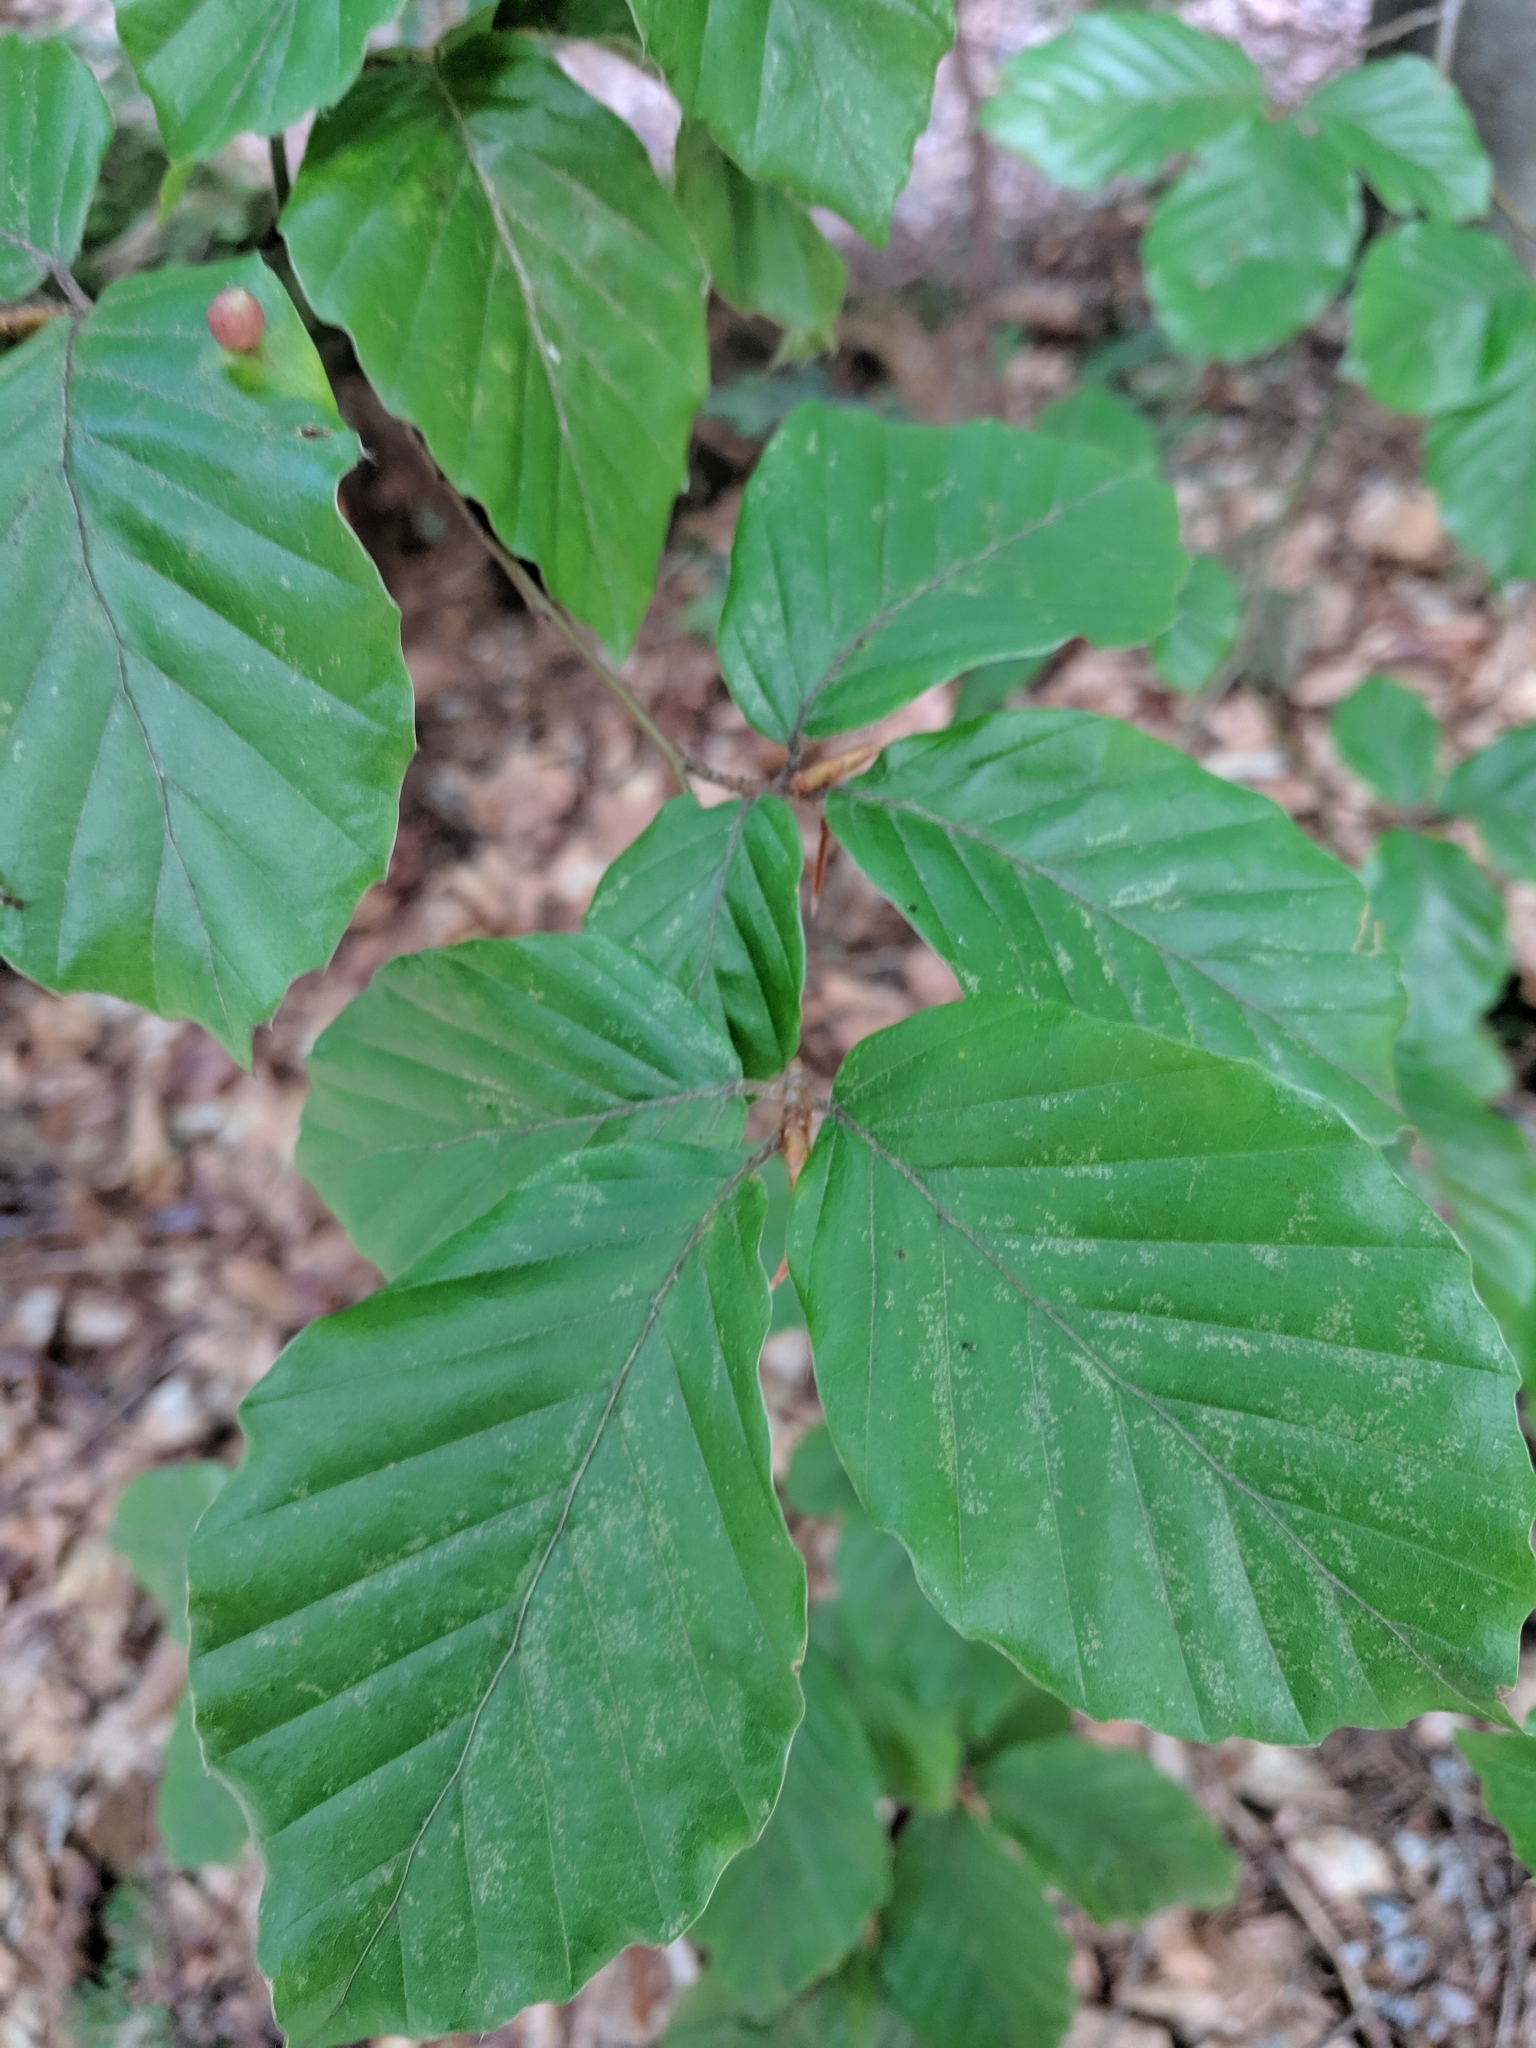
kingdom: Plantae
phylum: Tracheophyta
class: Magnoliopsida
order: Fagales
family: Fagaceae
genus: Fagus
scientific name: Fagus sylvatica
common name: Beech
